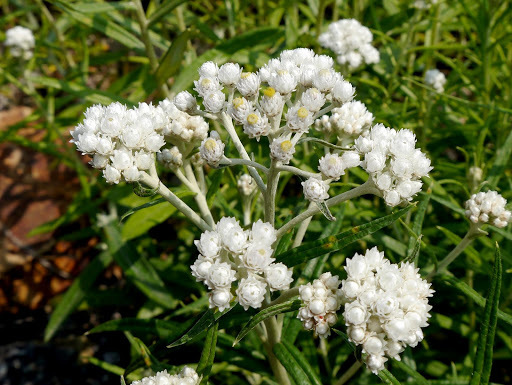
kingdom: Plantae
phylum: Tracheophyta
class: Magnoliopsida
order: Asterales
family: Asteraceae
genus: Anaphalis
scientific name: Anaphalis margaritacea
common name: Pearly everlasting
